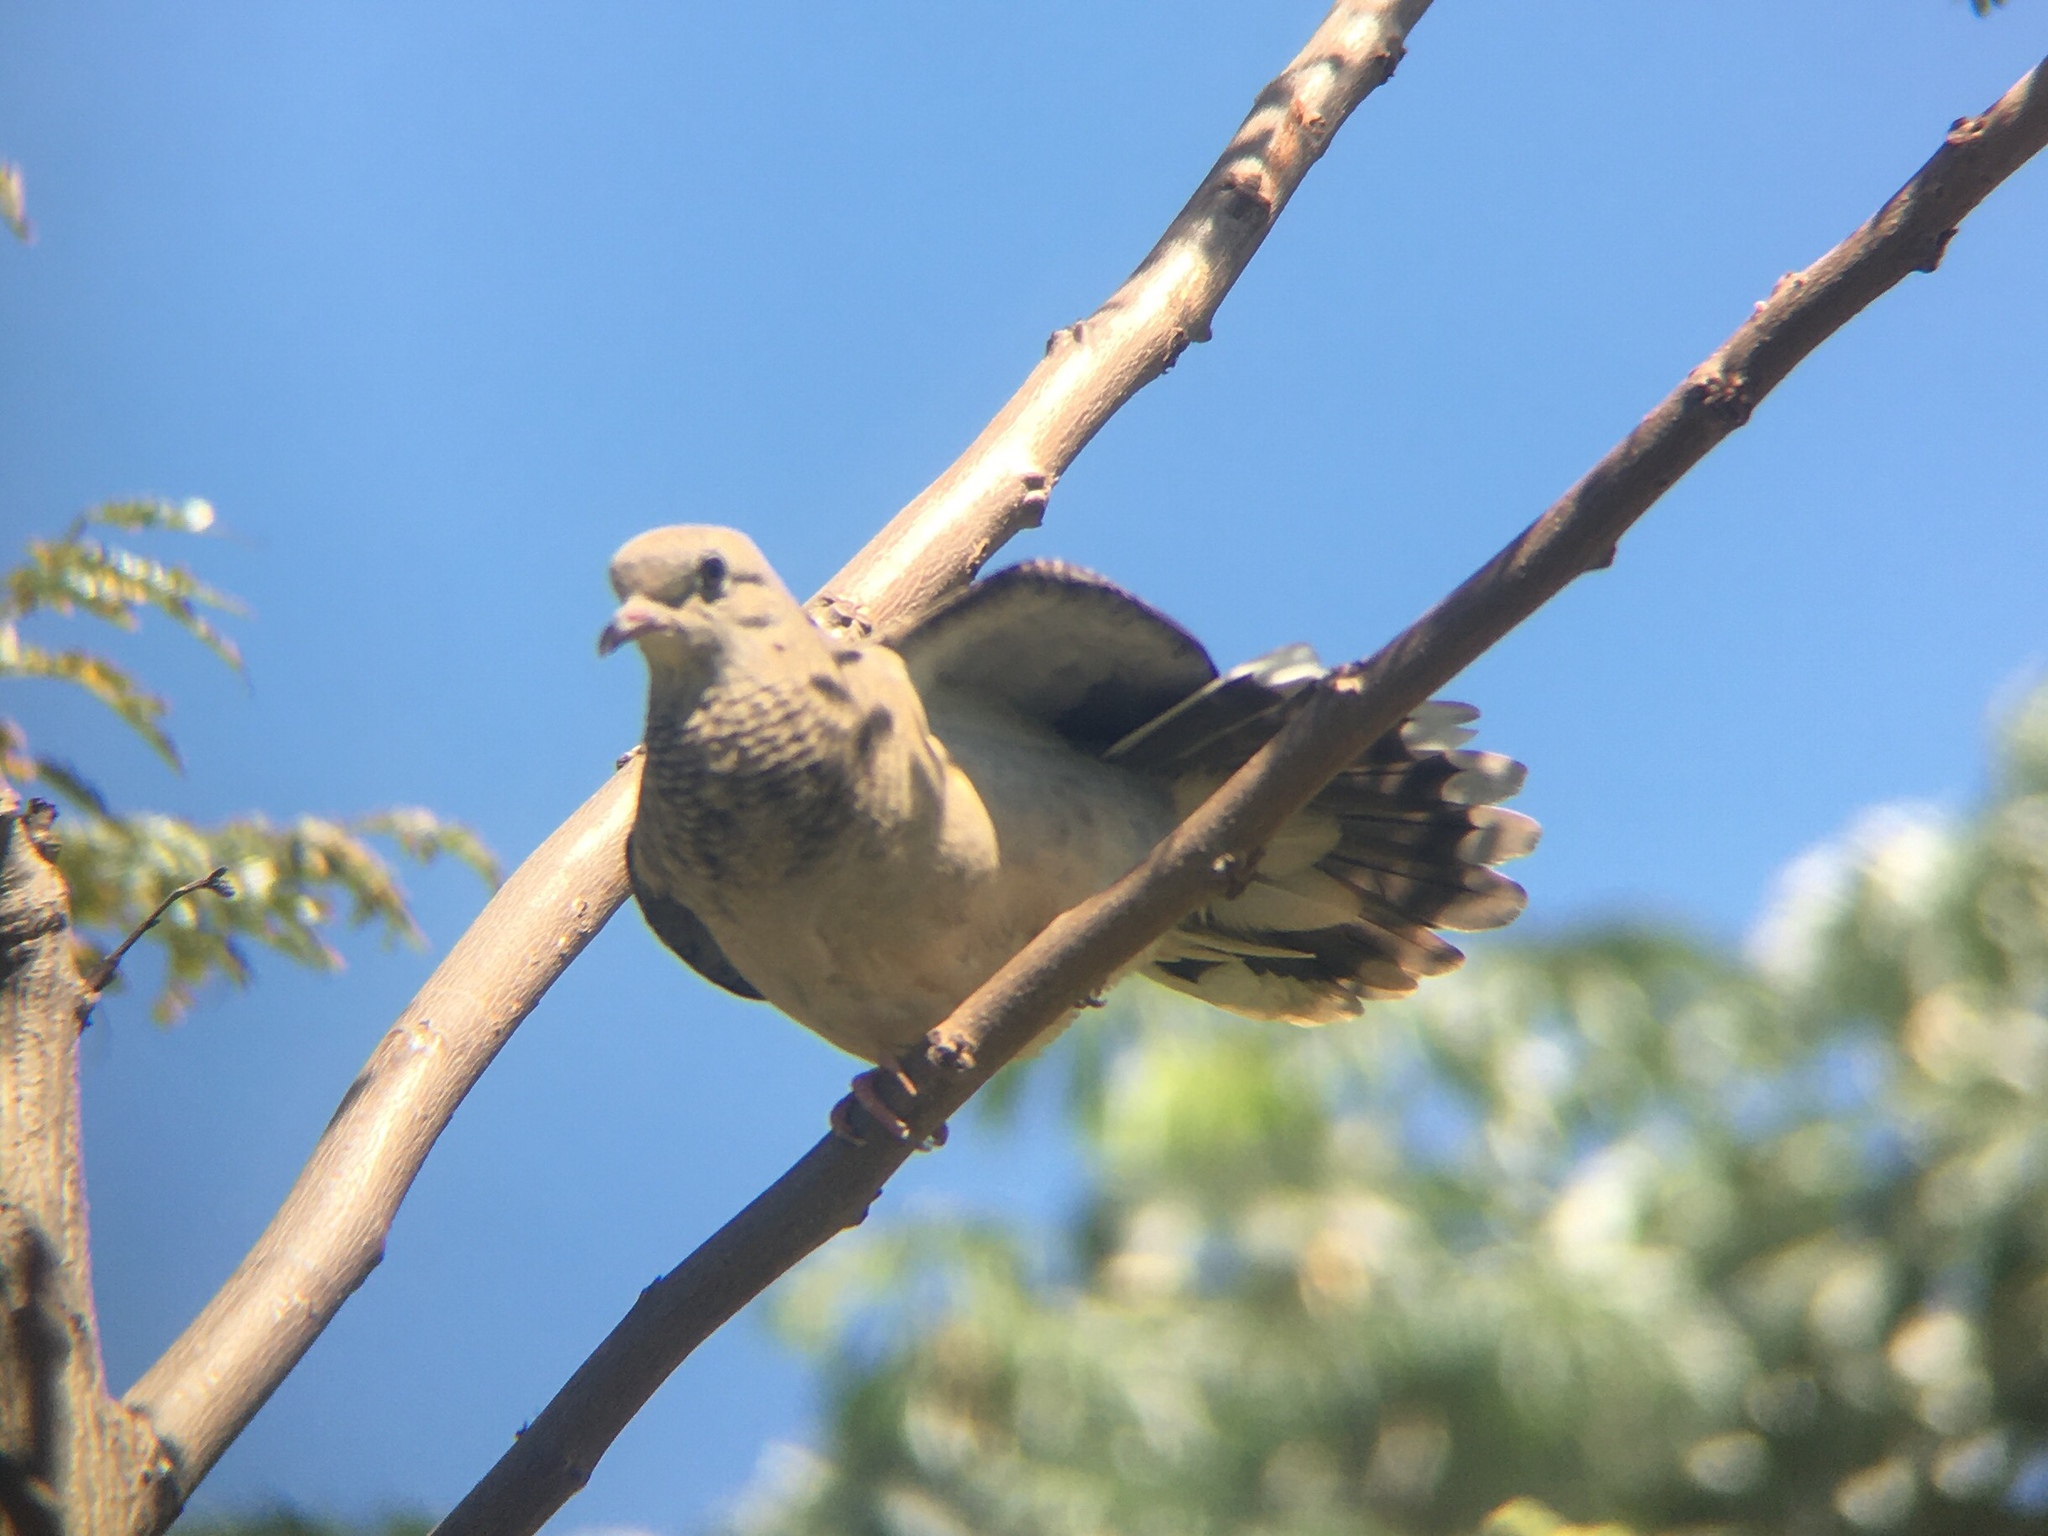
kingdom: Animalia
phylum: Chordata
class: Aves
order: Columbiformes
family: Columbidae
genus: Zenaida
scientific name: Zenaida auriculata
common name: Eared dove
